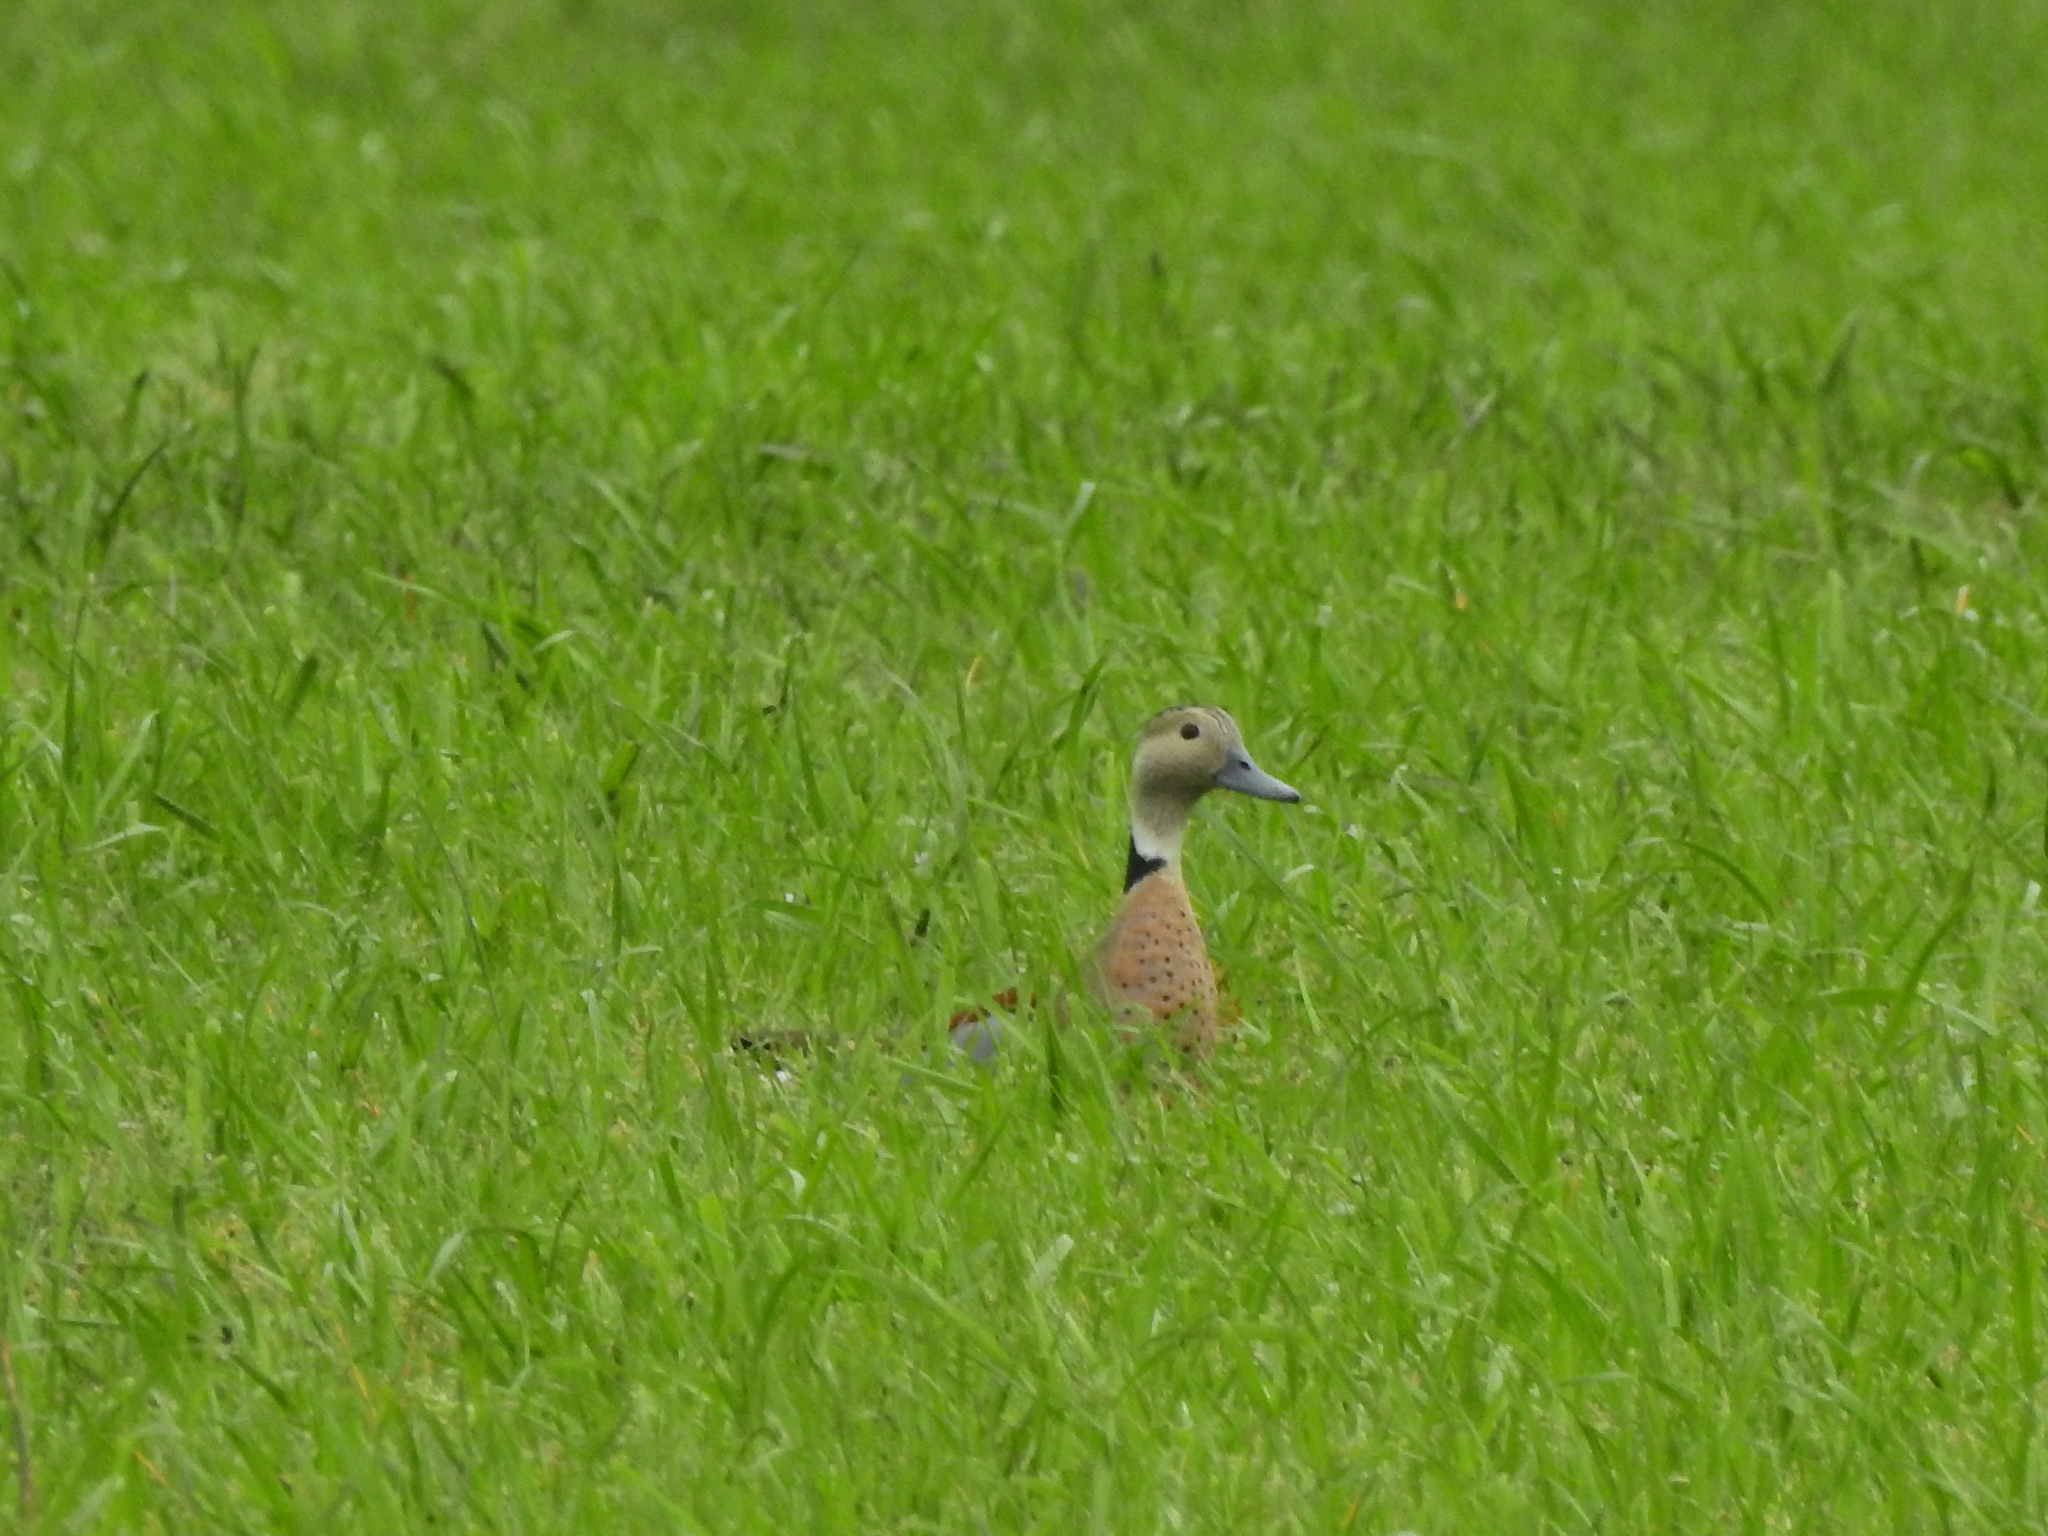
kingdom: Animalia
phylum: Chordata
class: Aves
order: Anseriformes
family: Anatidae
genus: Callonetta
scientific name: Callonetta leucophrys
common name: Ringed teal
